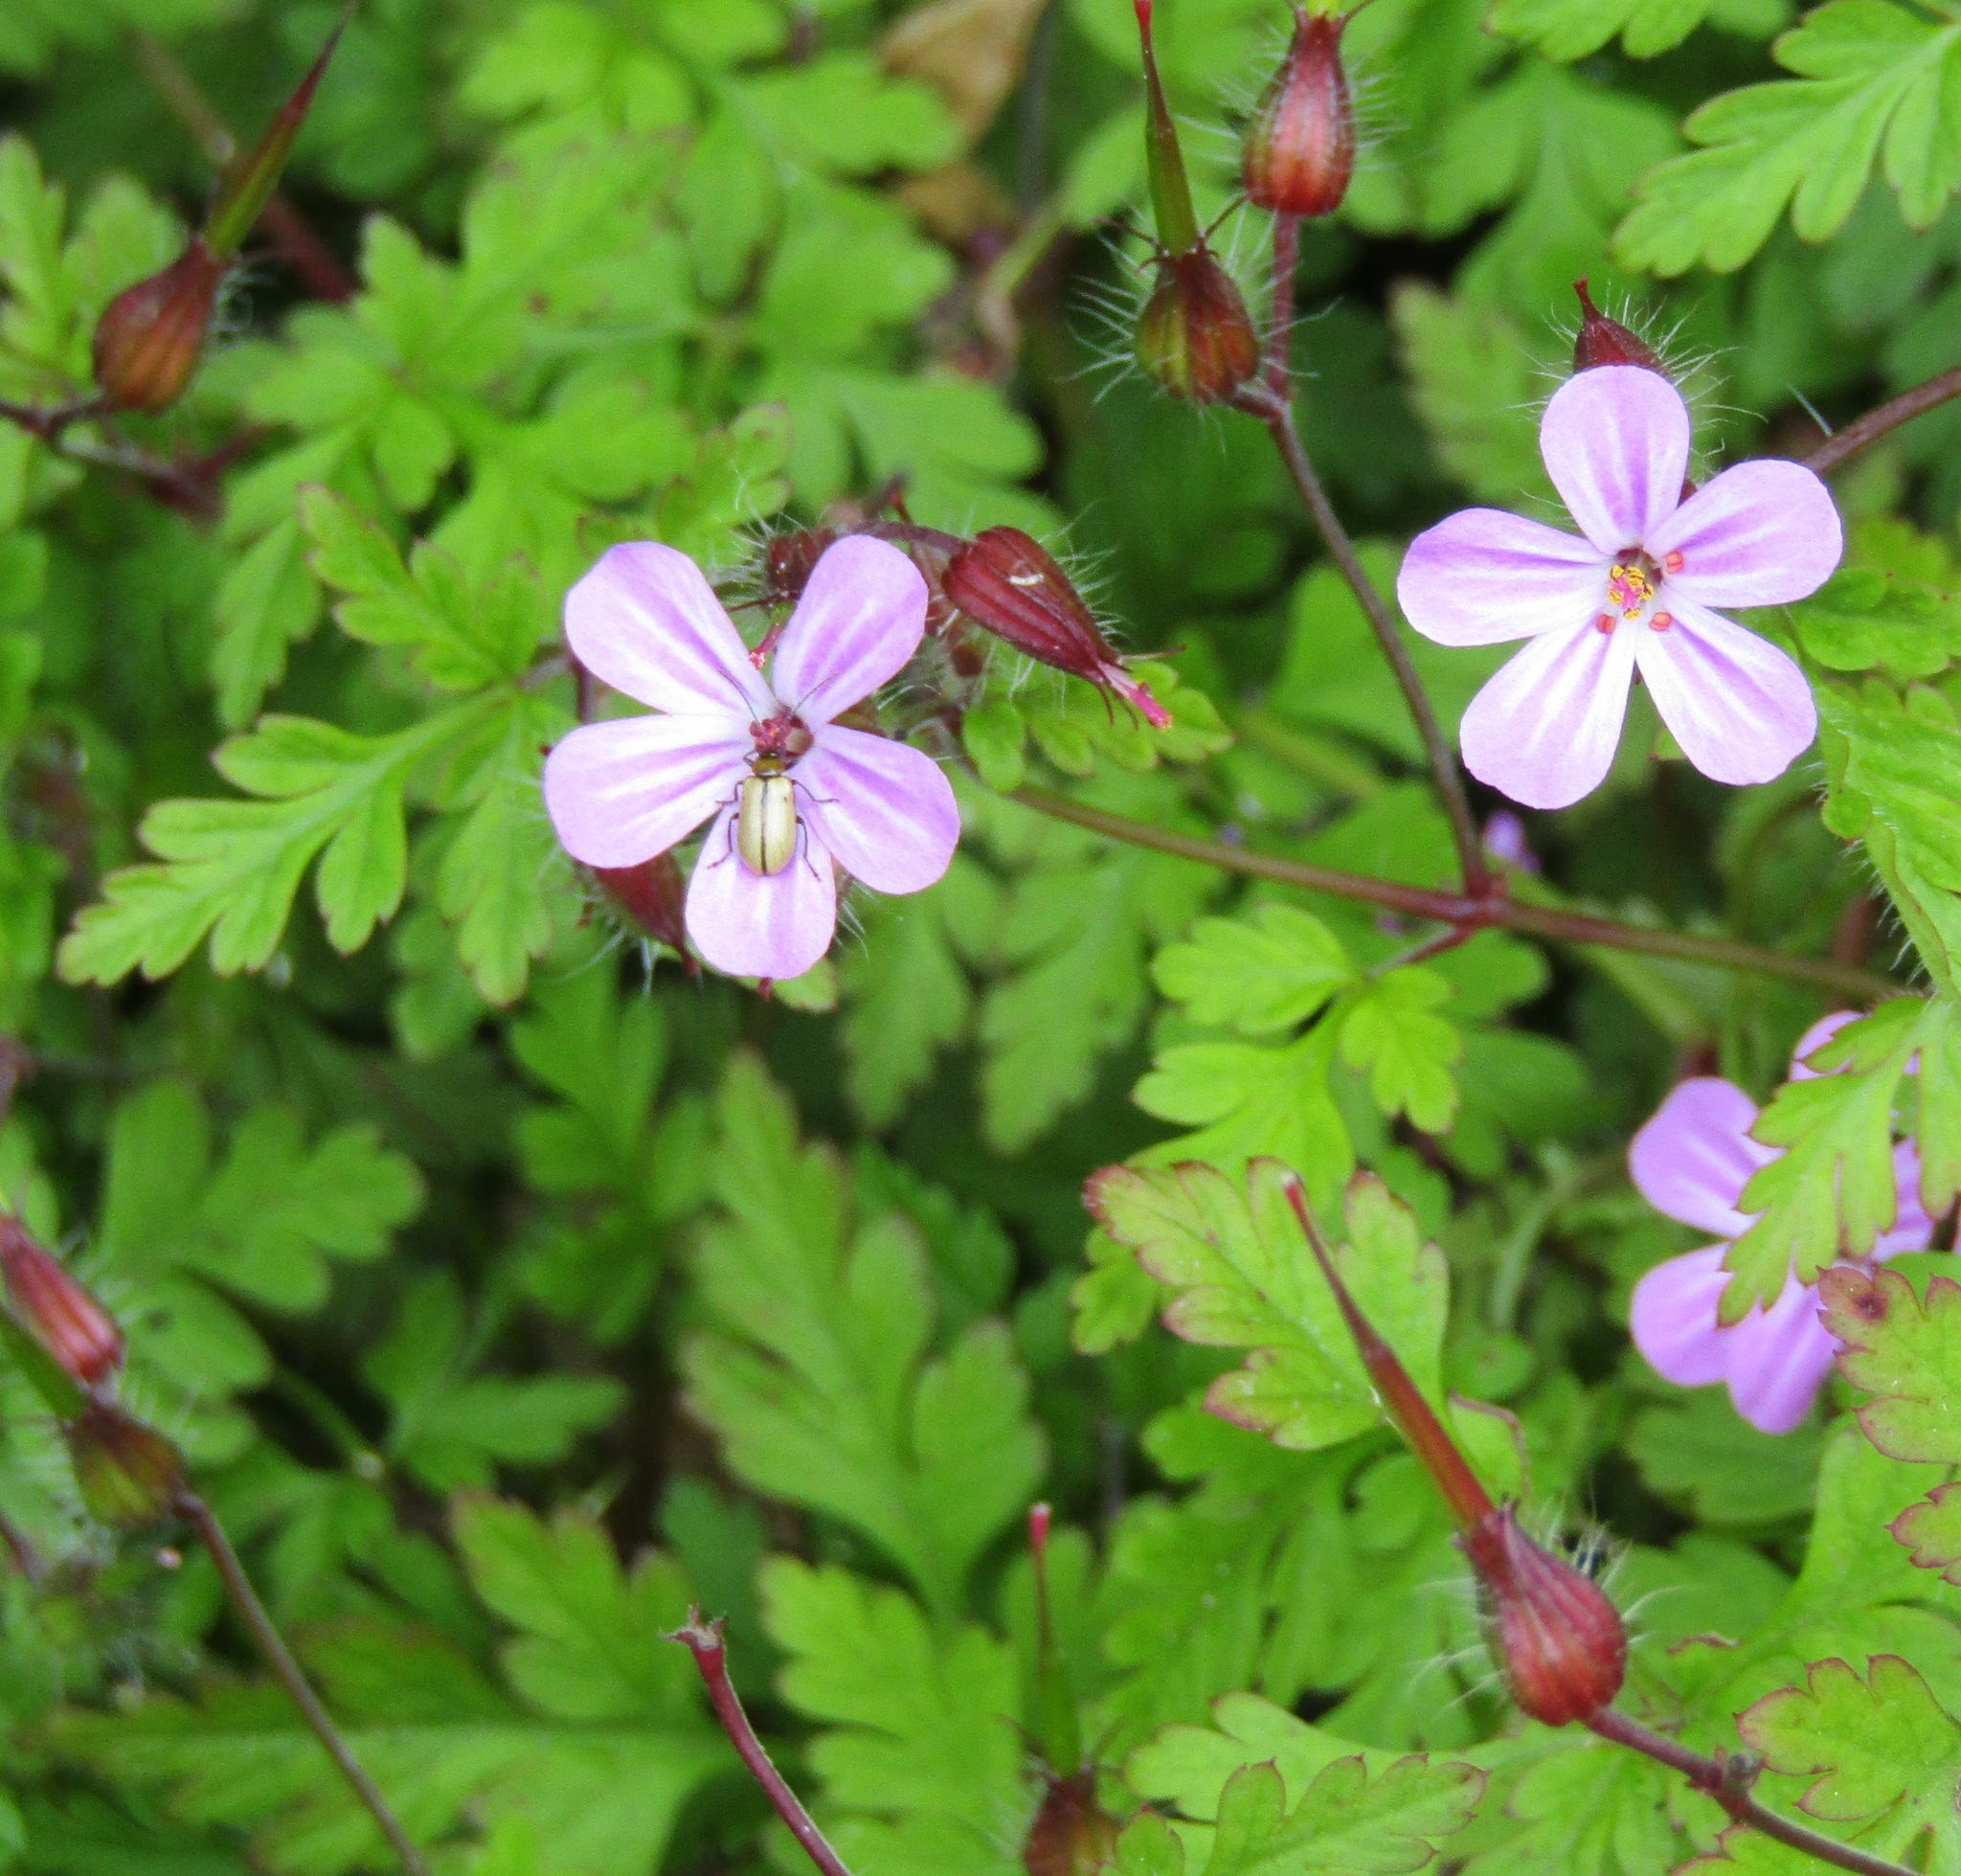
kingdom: Plantae
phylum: Tracheophyta
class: Magnoliopsida
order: Geraniales
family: Geraniaceae
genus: Geranium
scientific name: Geranium robertianum
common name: Herb-robert
